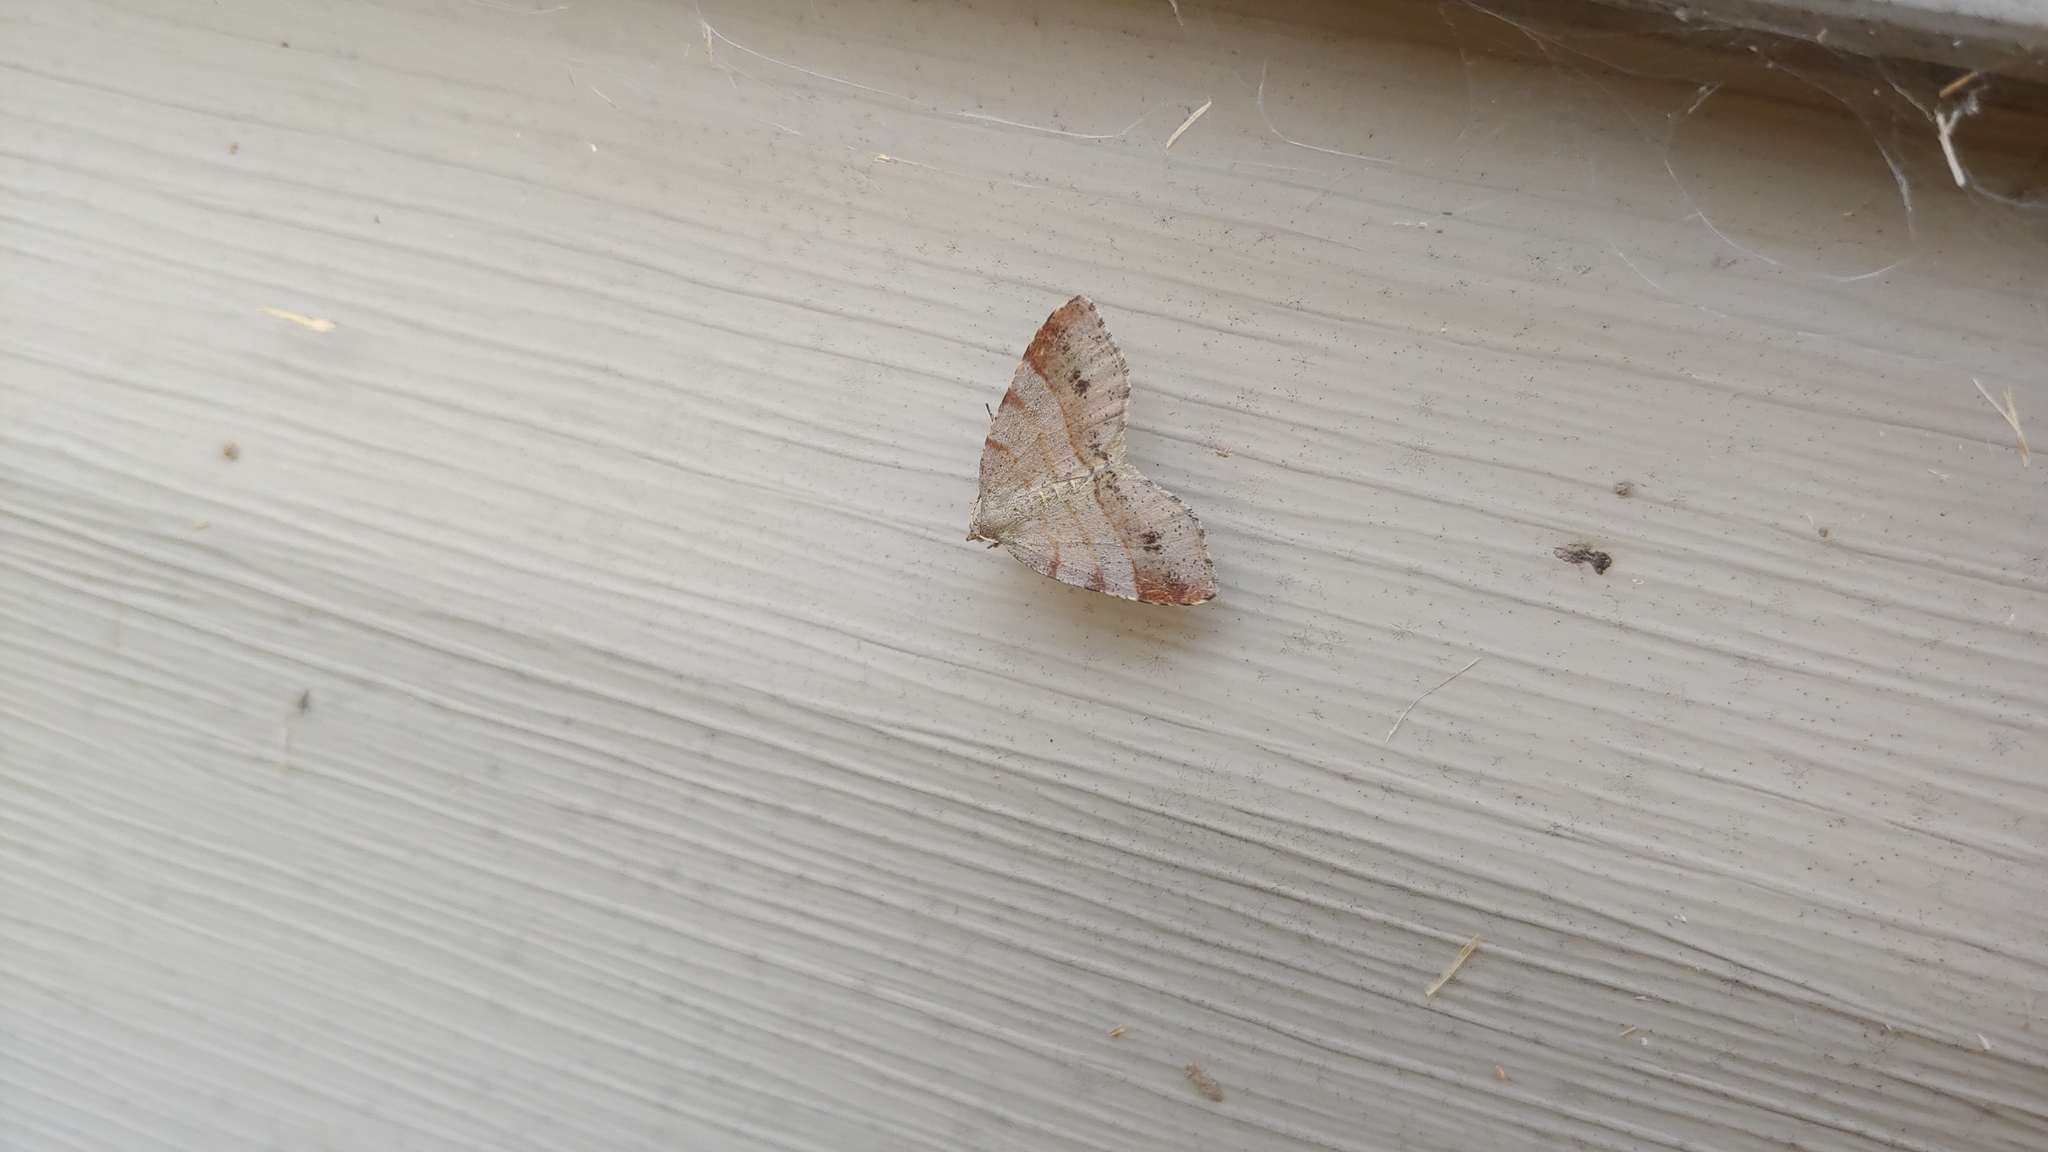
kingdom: Animalia
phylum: Arthropoda
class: Insecta
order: Lepidoptera
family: Geometridae
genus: Mellilla
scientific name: Mellilla xanthometata
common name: Orange wing moth
